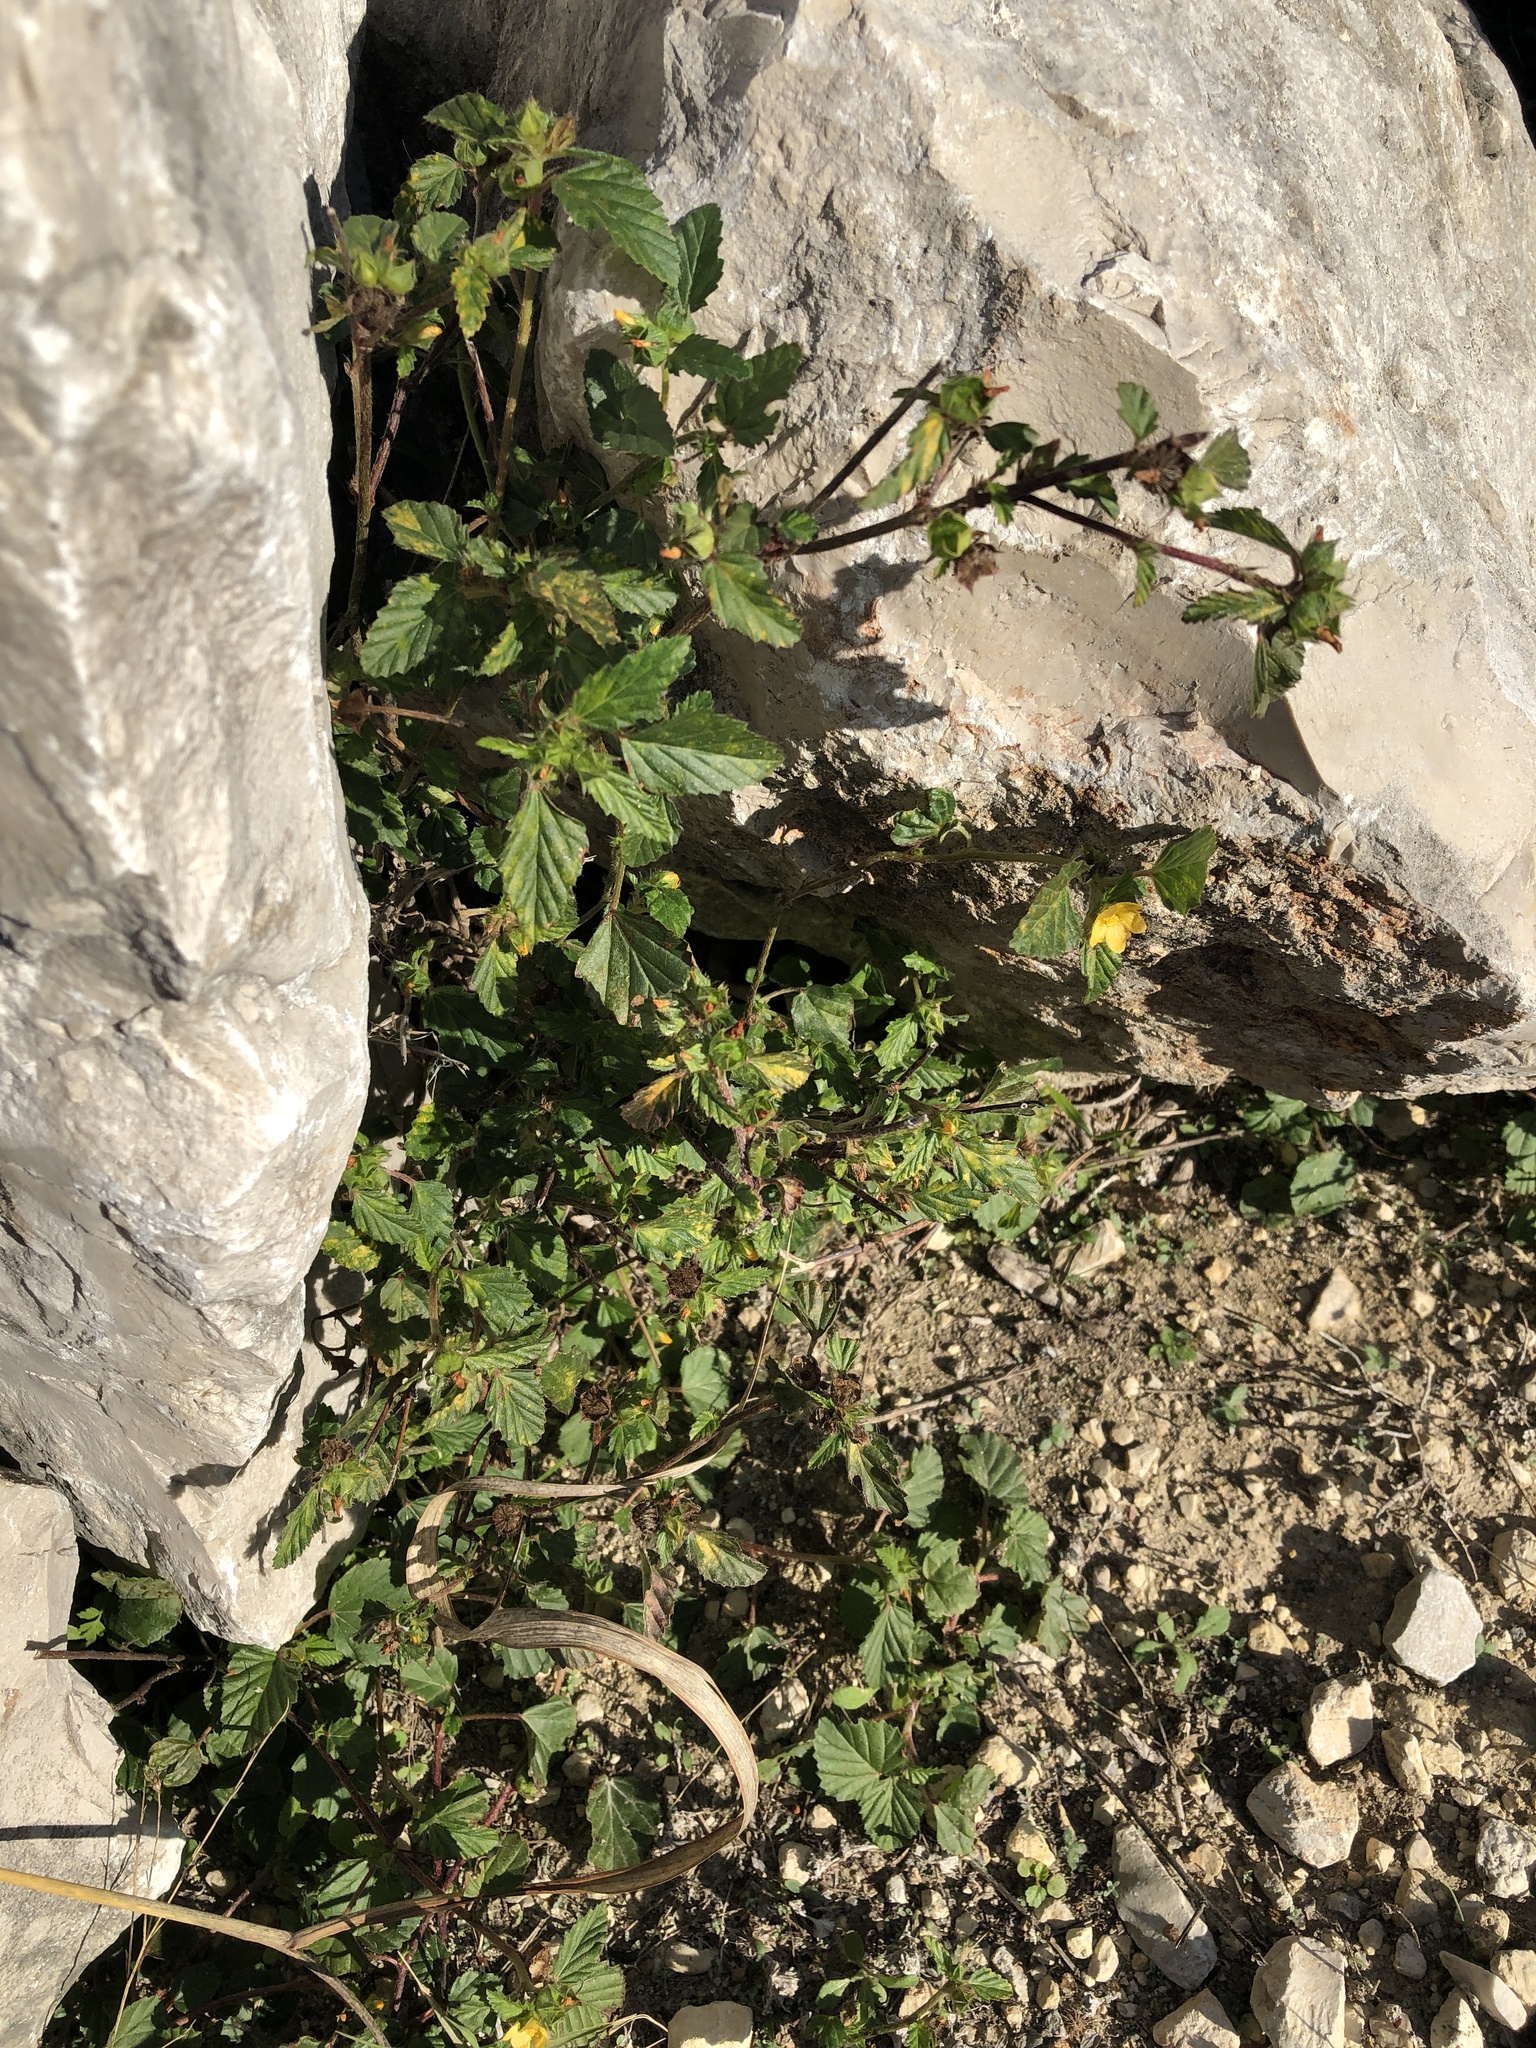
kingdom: Plantae
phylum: Tracheophyta
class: Magnoliopsida
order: Malvales
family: Malvaceae
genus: Malvastrum
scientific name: Malvastrum coromandelianum
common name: Threelobe false mallow
